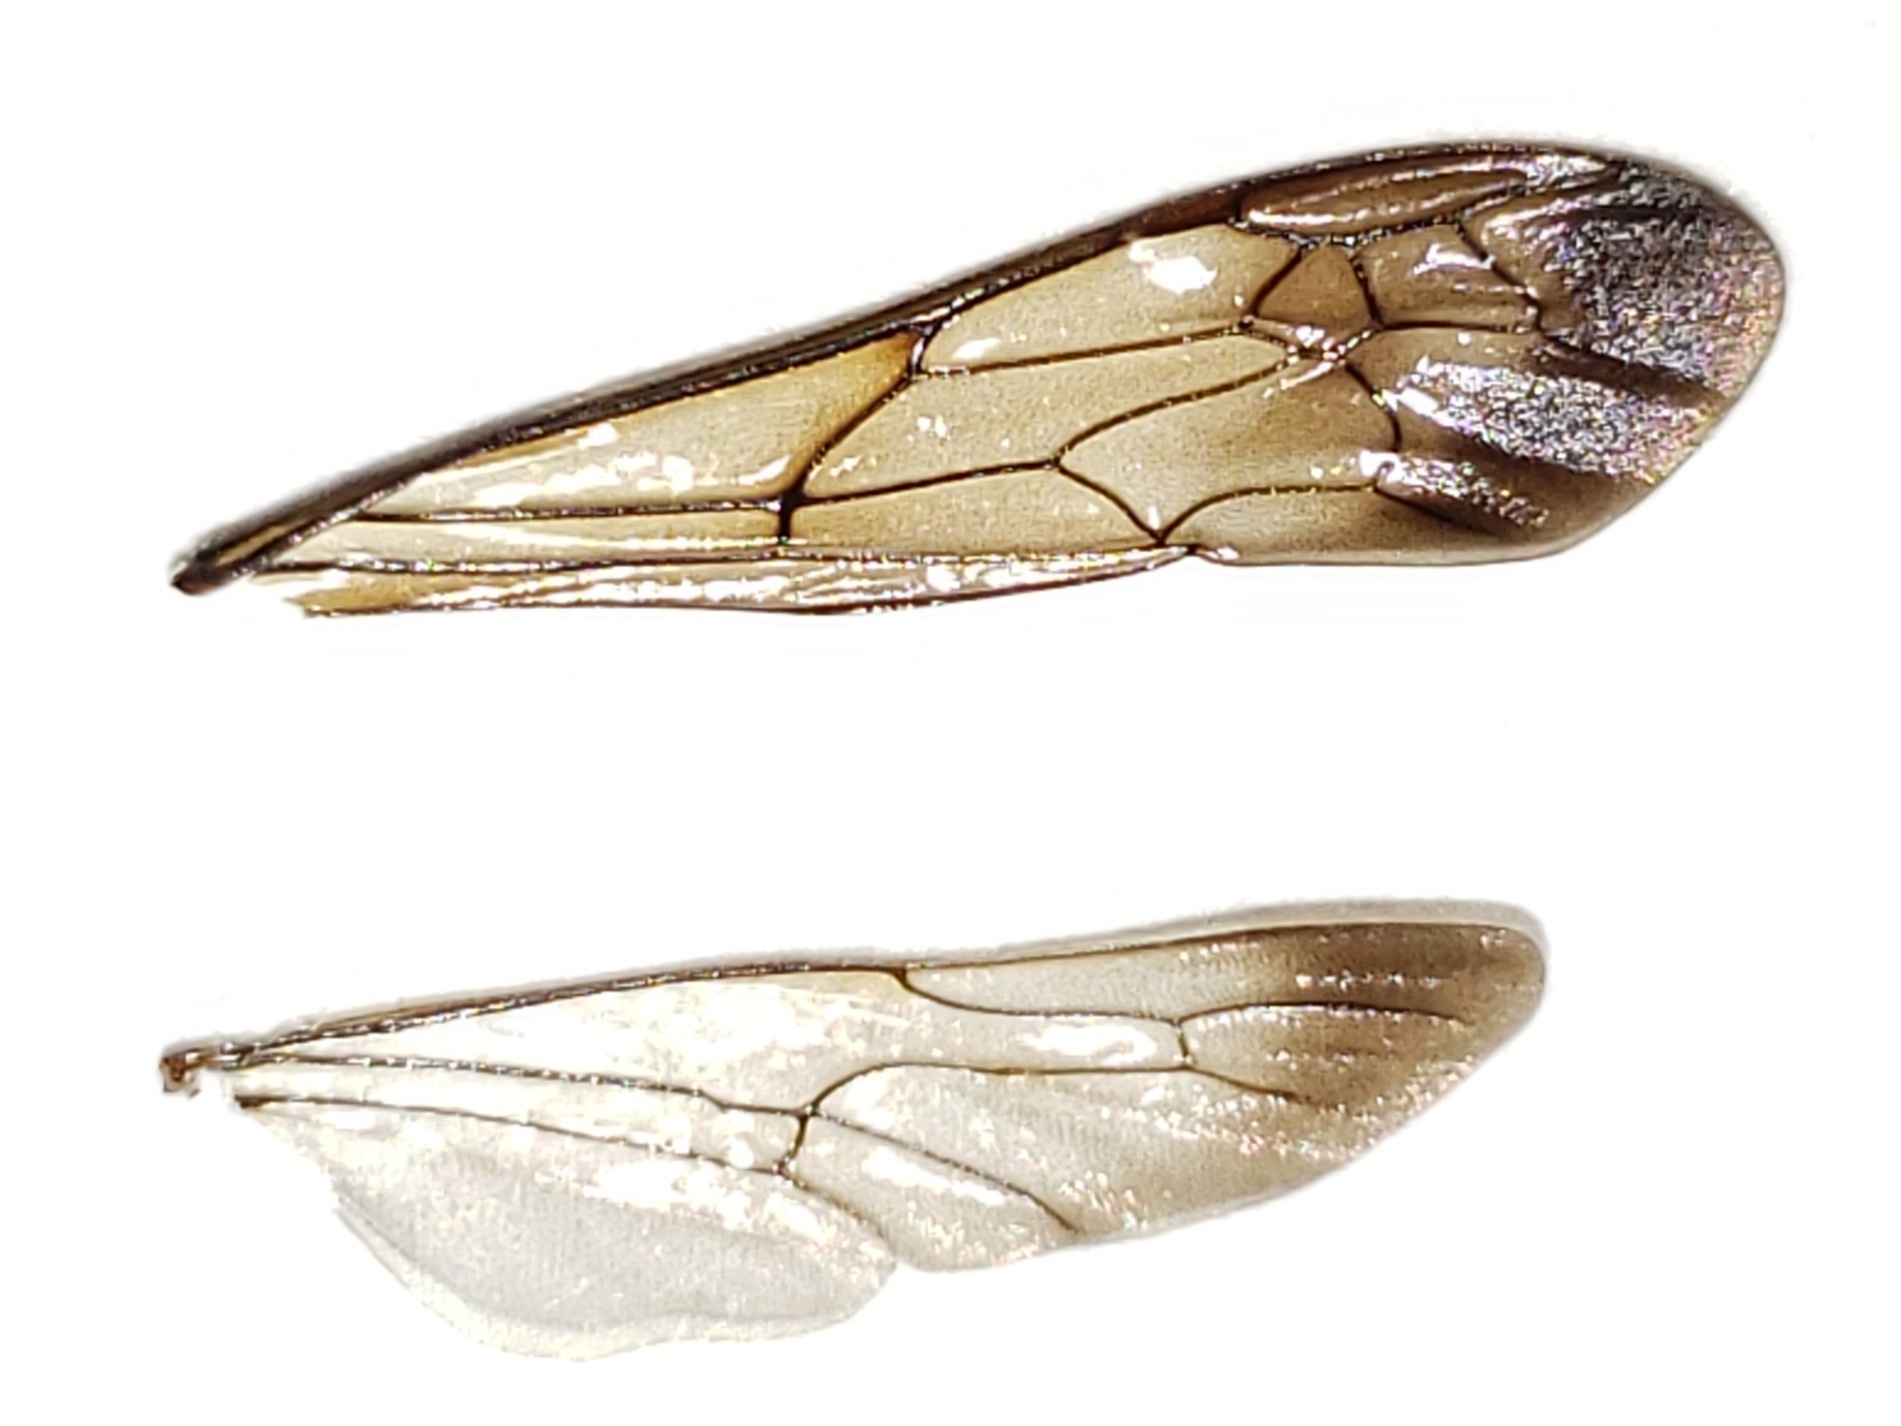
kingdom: Animalia
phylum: Arthropoda
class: Insecta
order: Hymenoptera
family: Sphecidae
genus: Chalybion
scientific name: Chalybion zimmermanni
